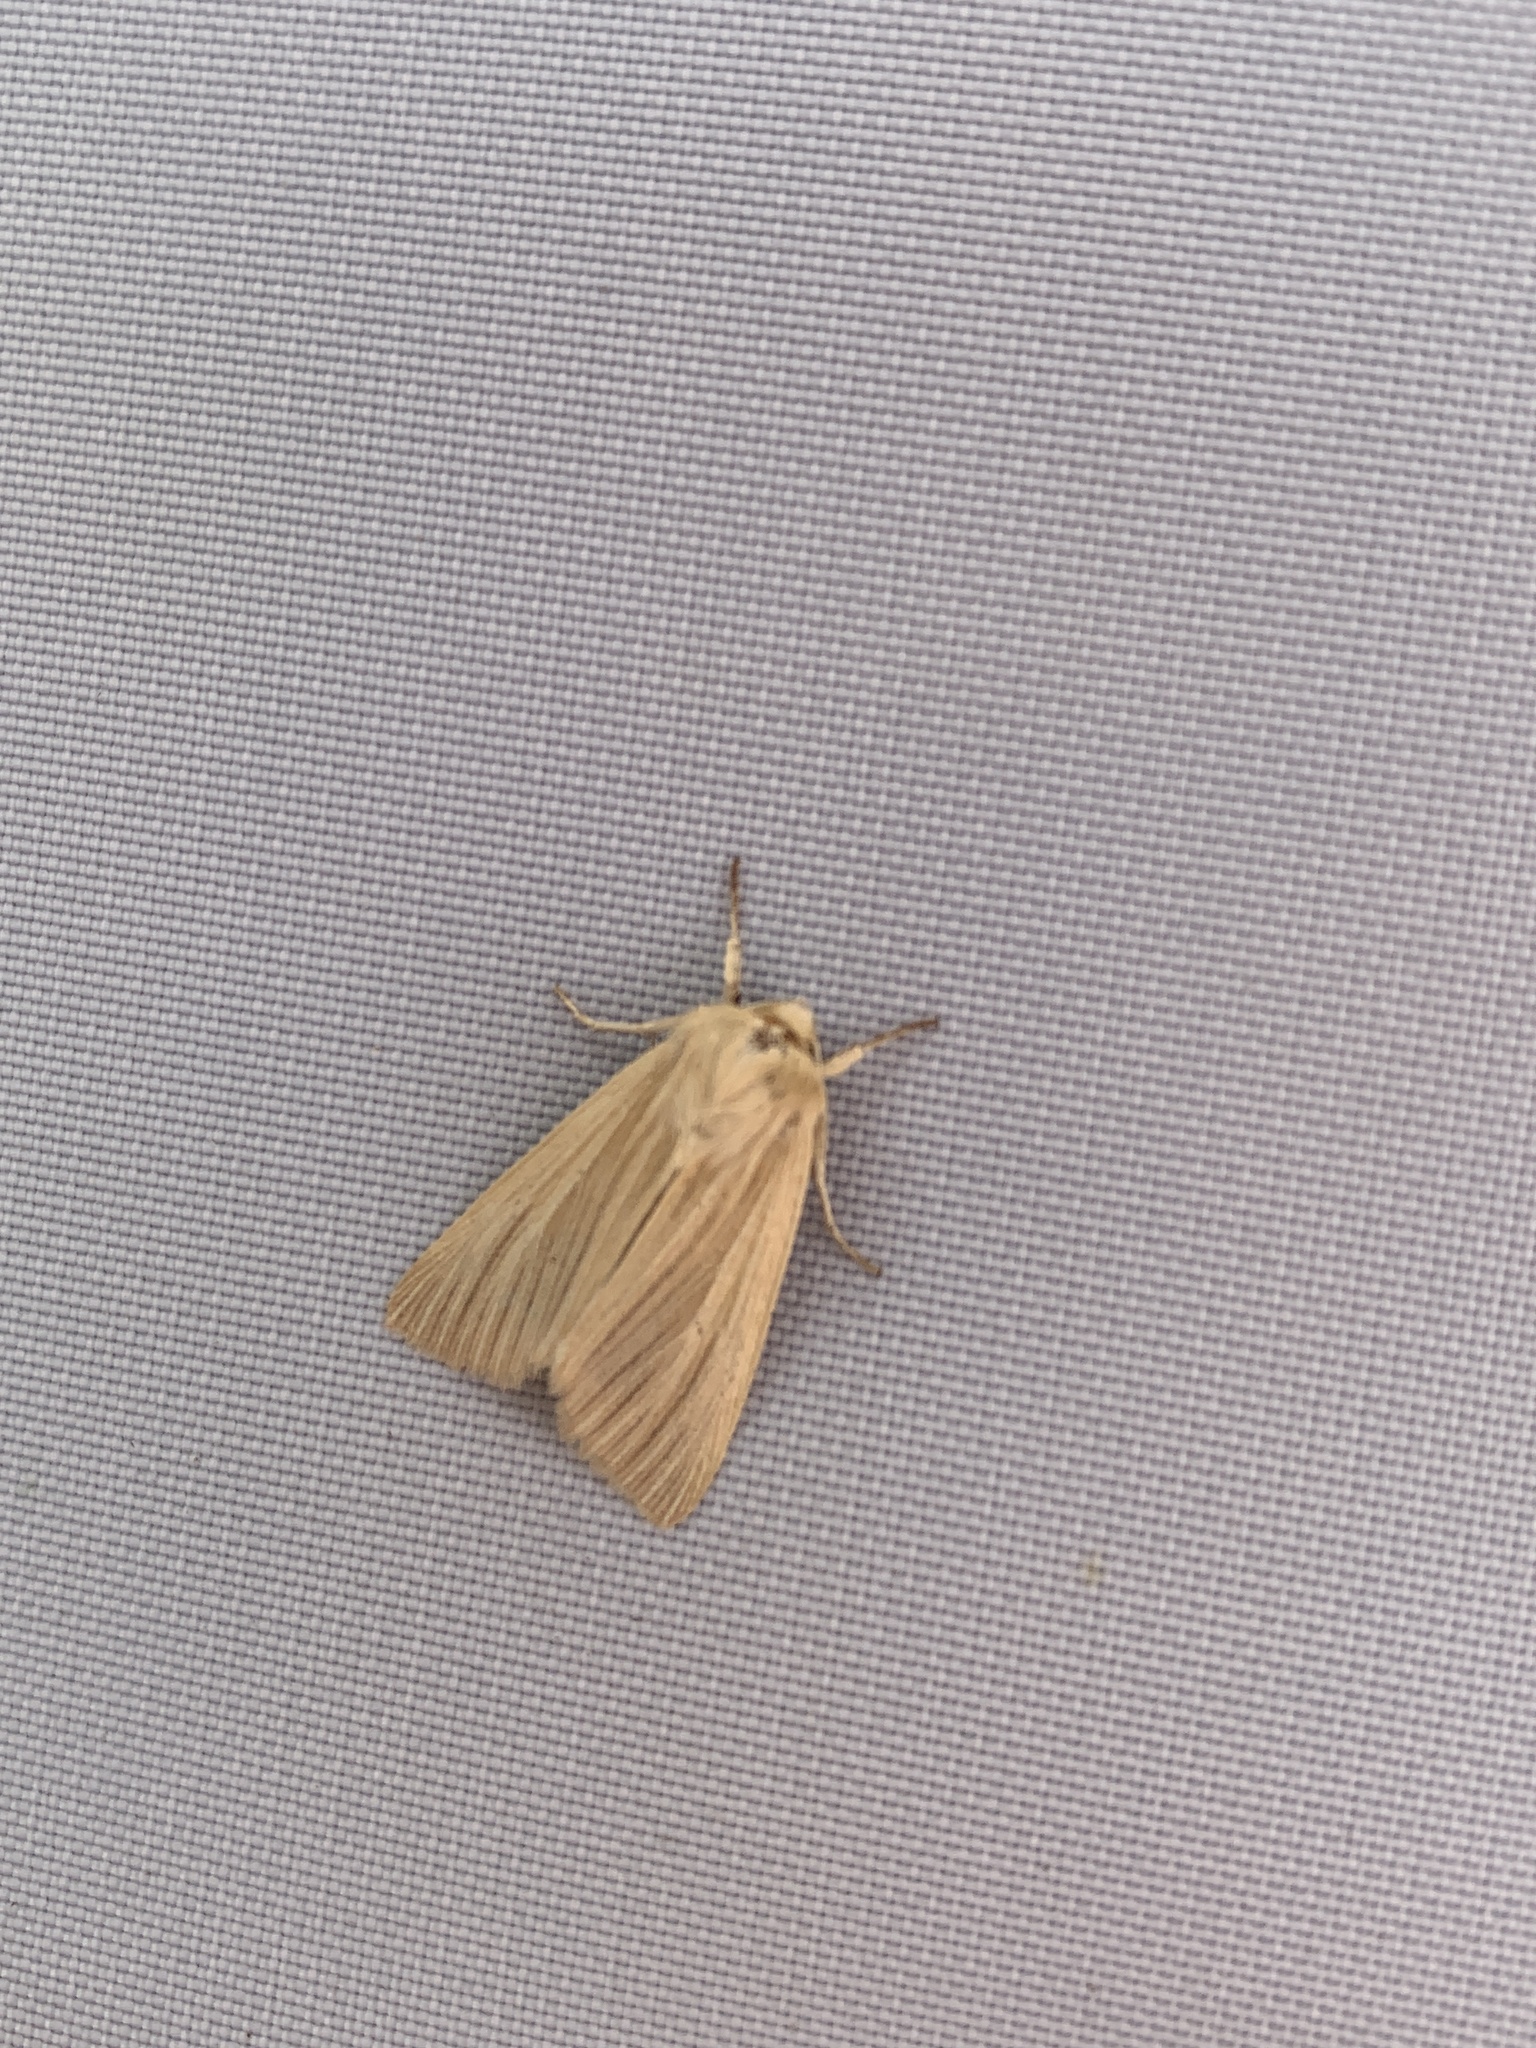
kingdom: Animalia
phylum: Arthropoda
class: Insecta
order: Lepidoptera
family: Noctuidae
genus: Mythimna
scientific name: Mythimna impura
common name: Smoky wainscot
